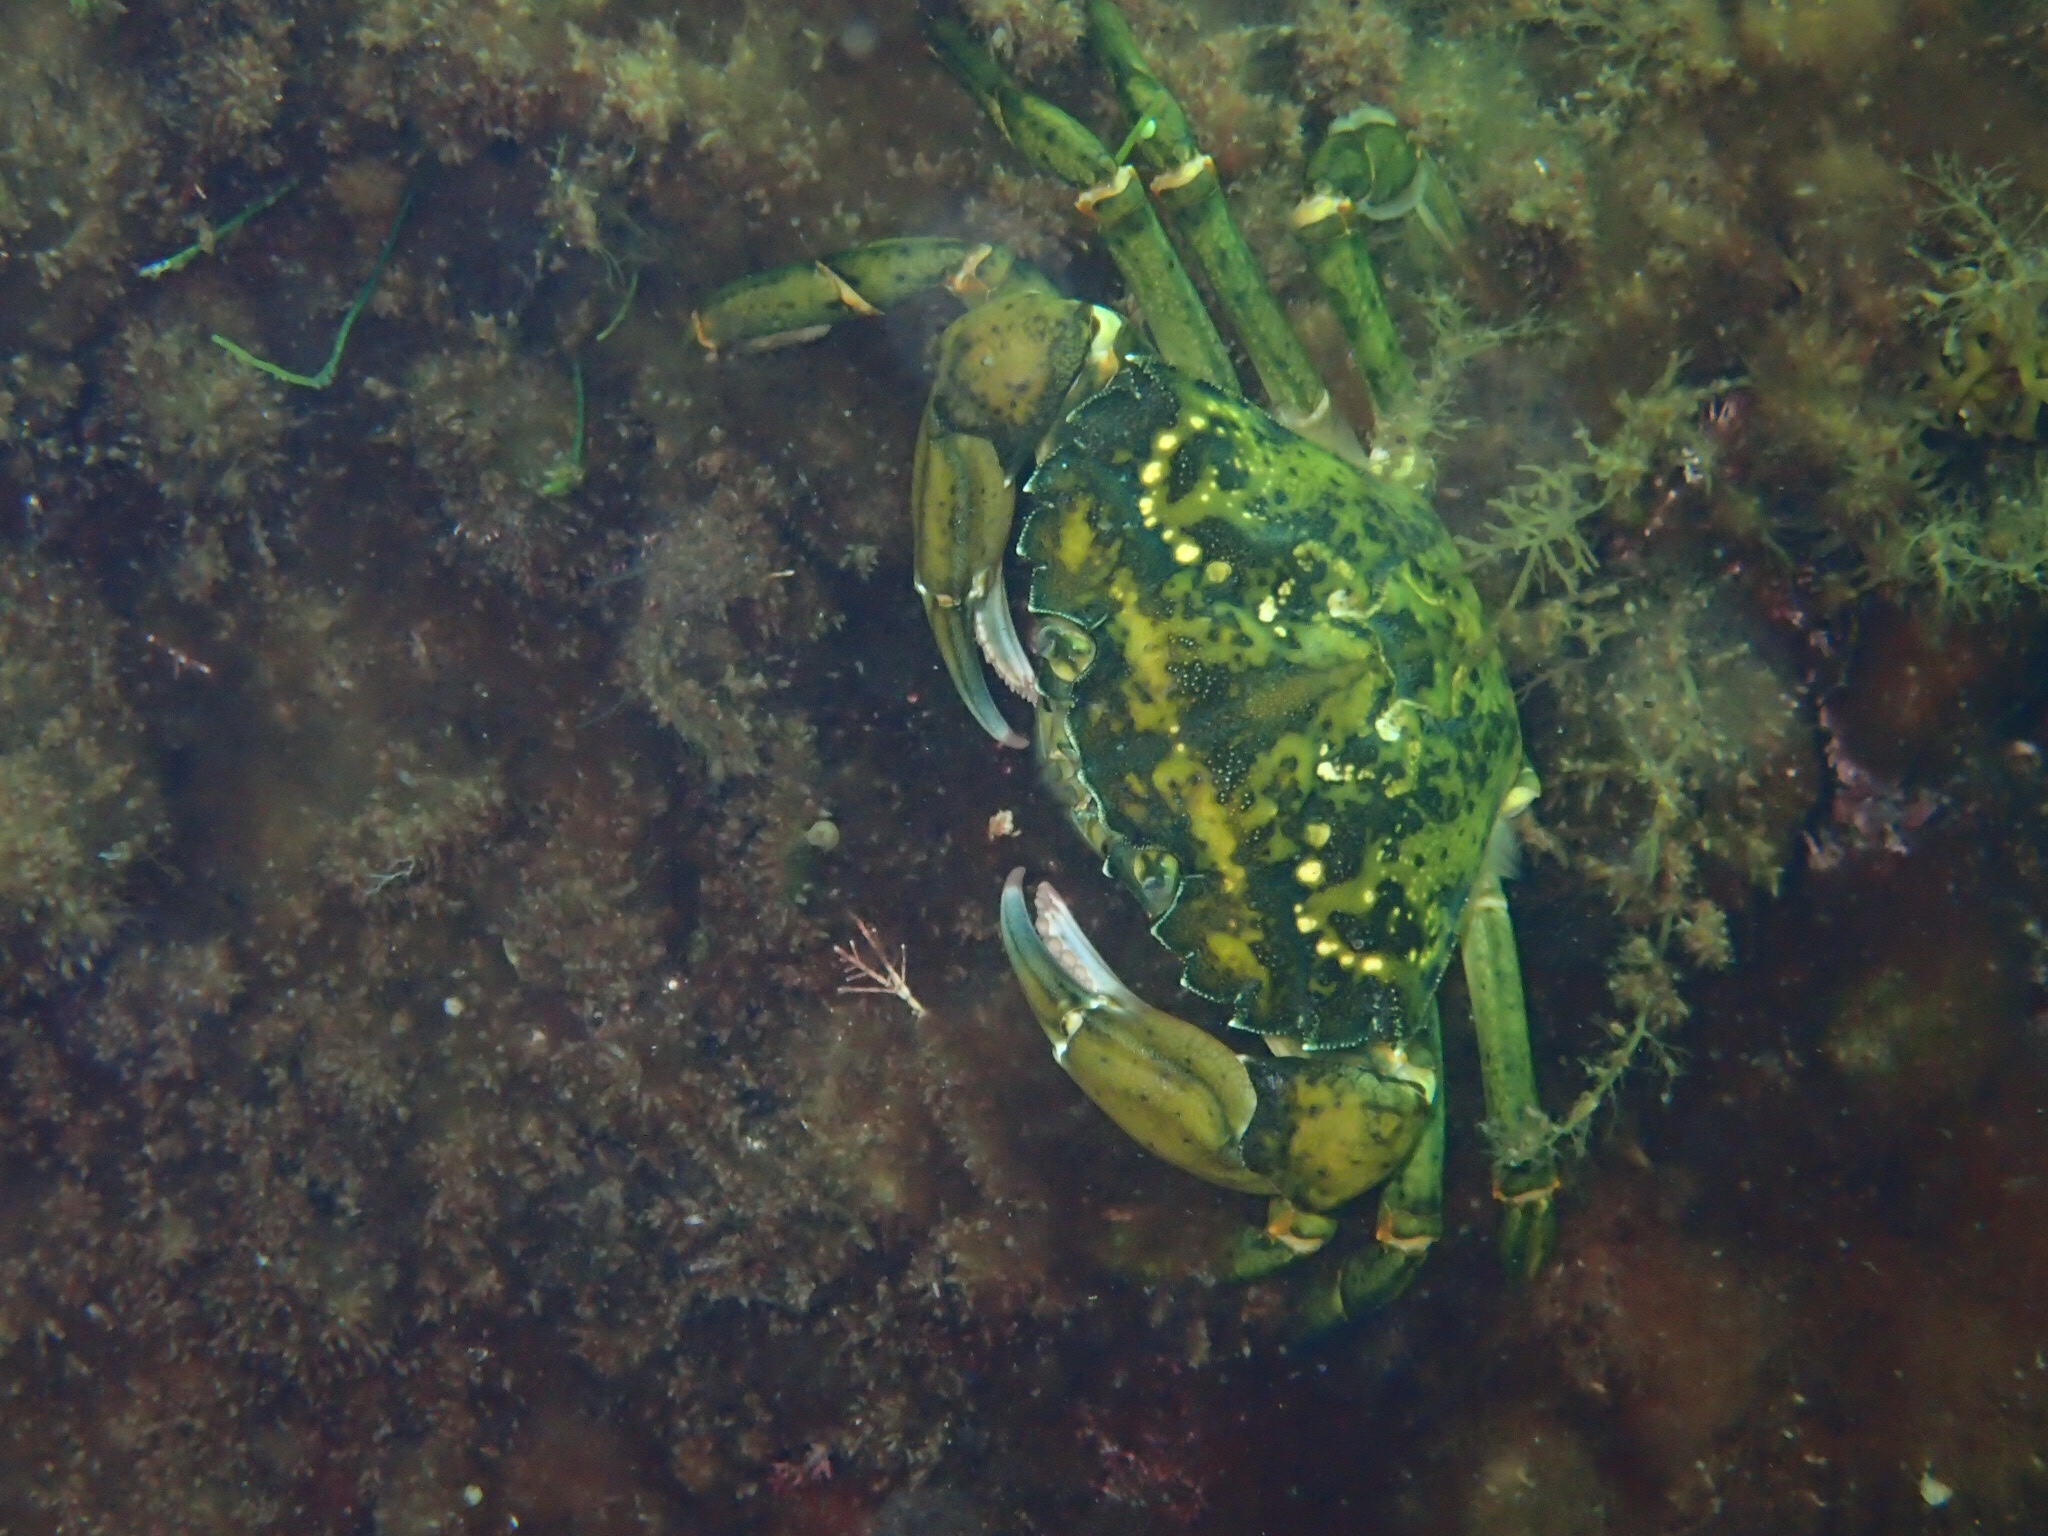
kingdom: Animalia
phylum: Arthropoda
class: Malacostraca
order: Decapoda
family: Carcinidae
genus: Carcinus
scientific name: Carcinus maenas
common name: European green crab
